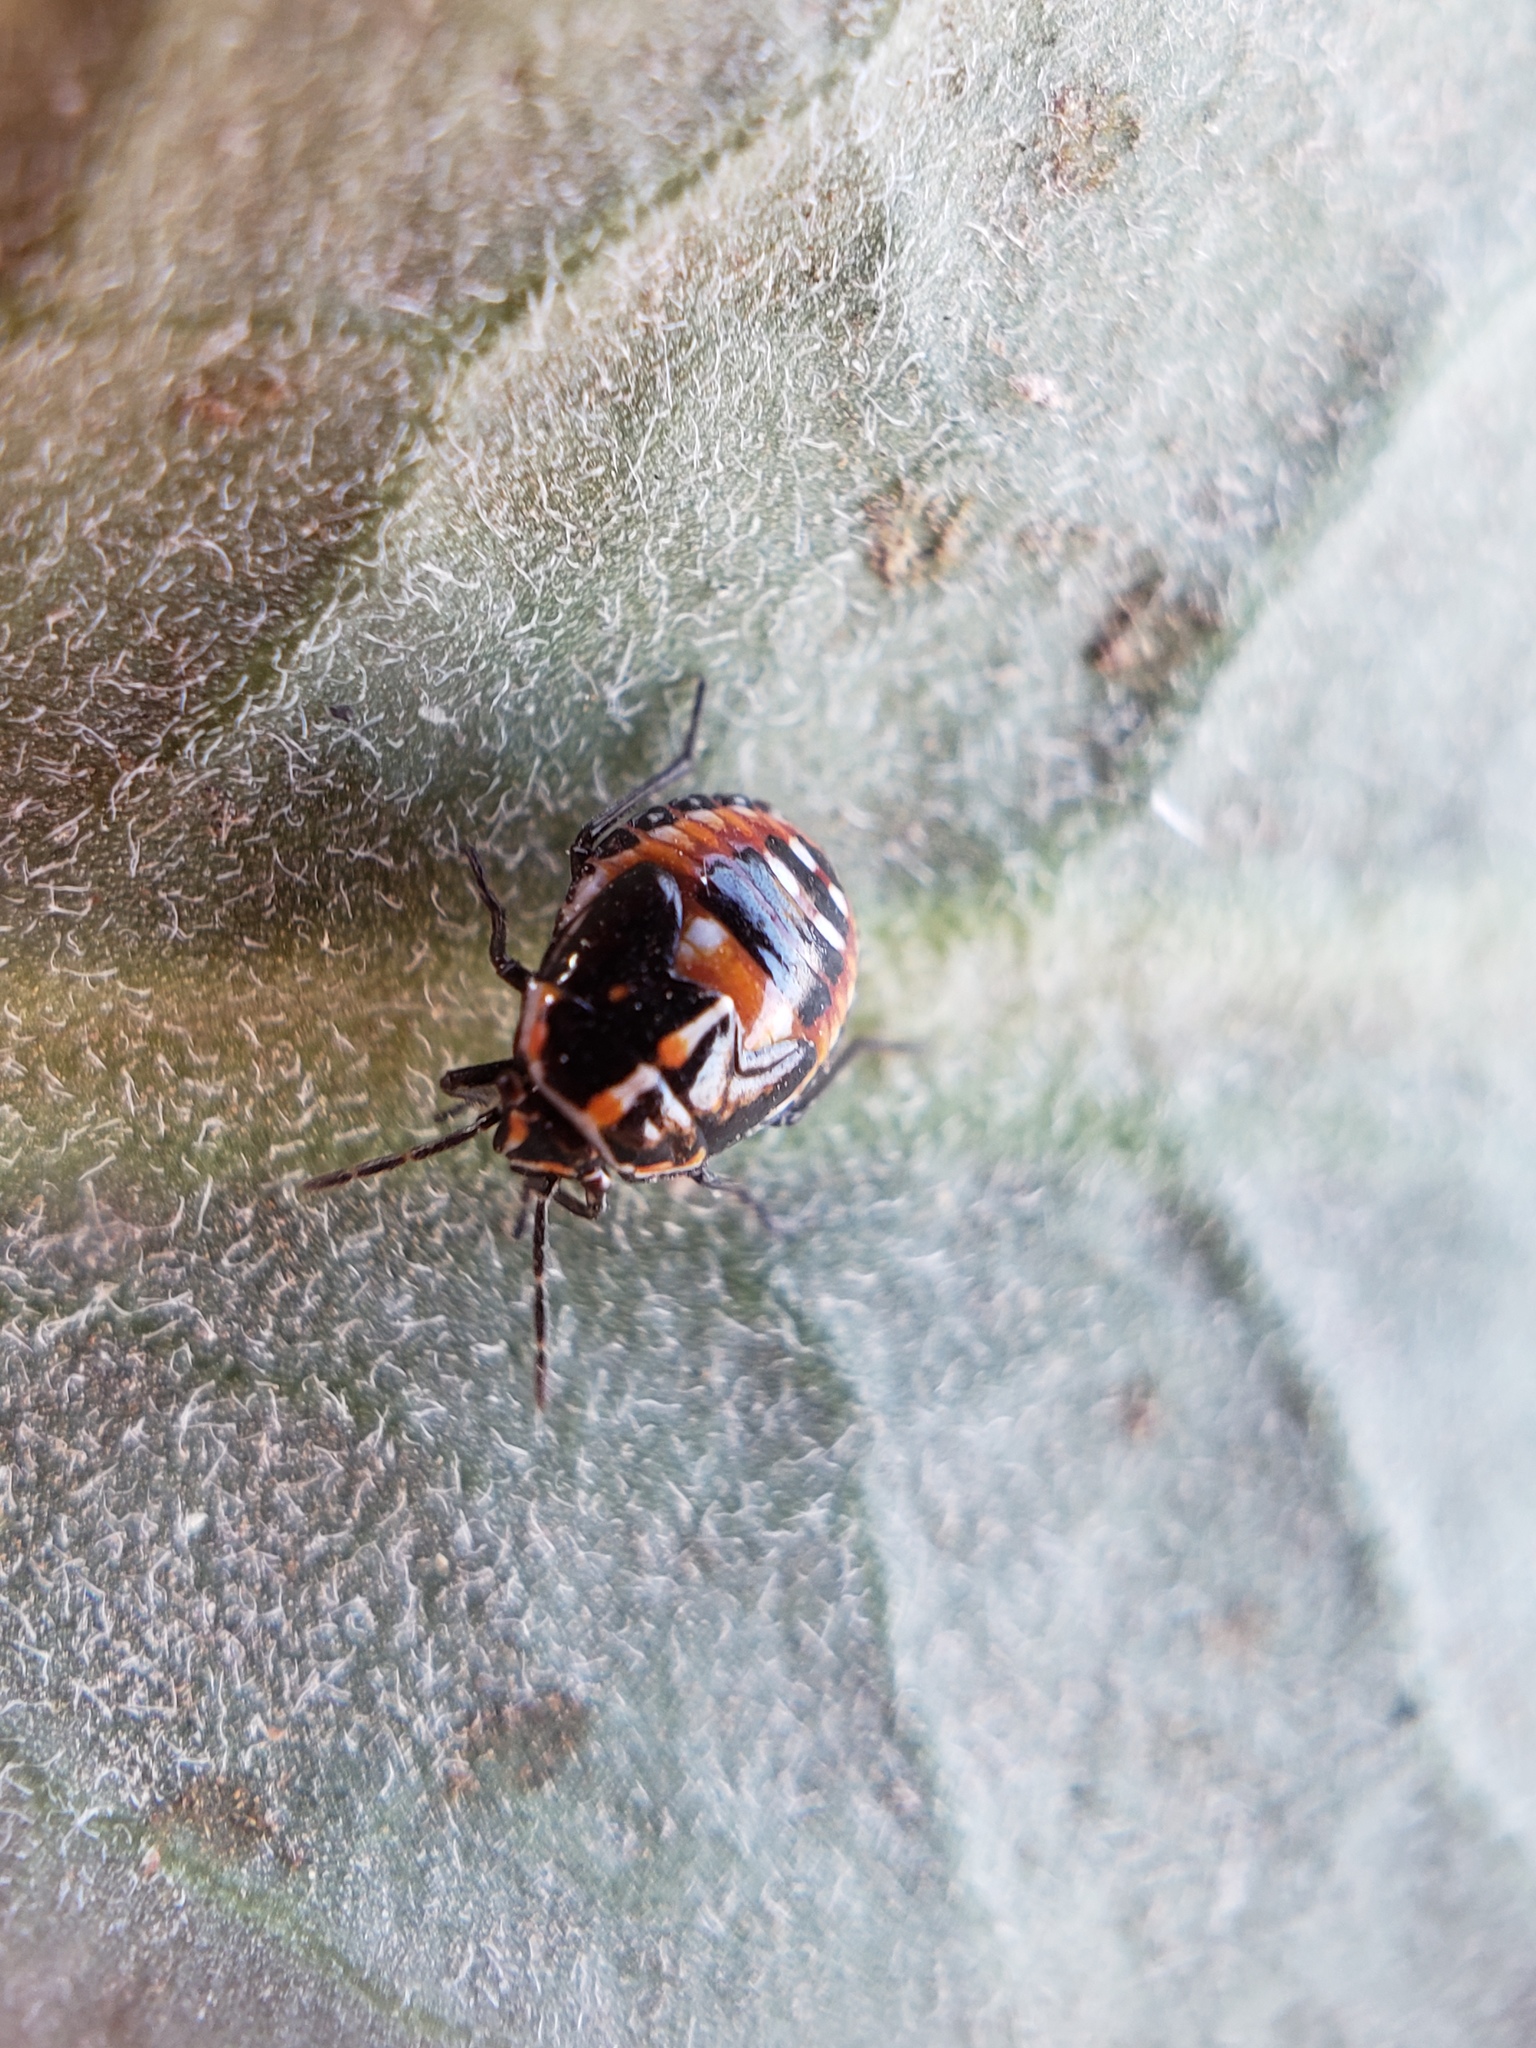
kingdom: Animalia
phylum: Arthropoda
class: Insecta
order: Hemiptera
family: Pentatomidae
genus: Bagrada
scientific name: Bagrada hilaris
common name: Bagrada bug
